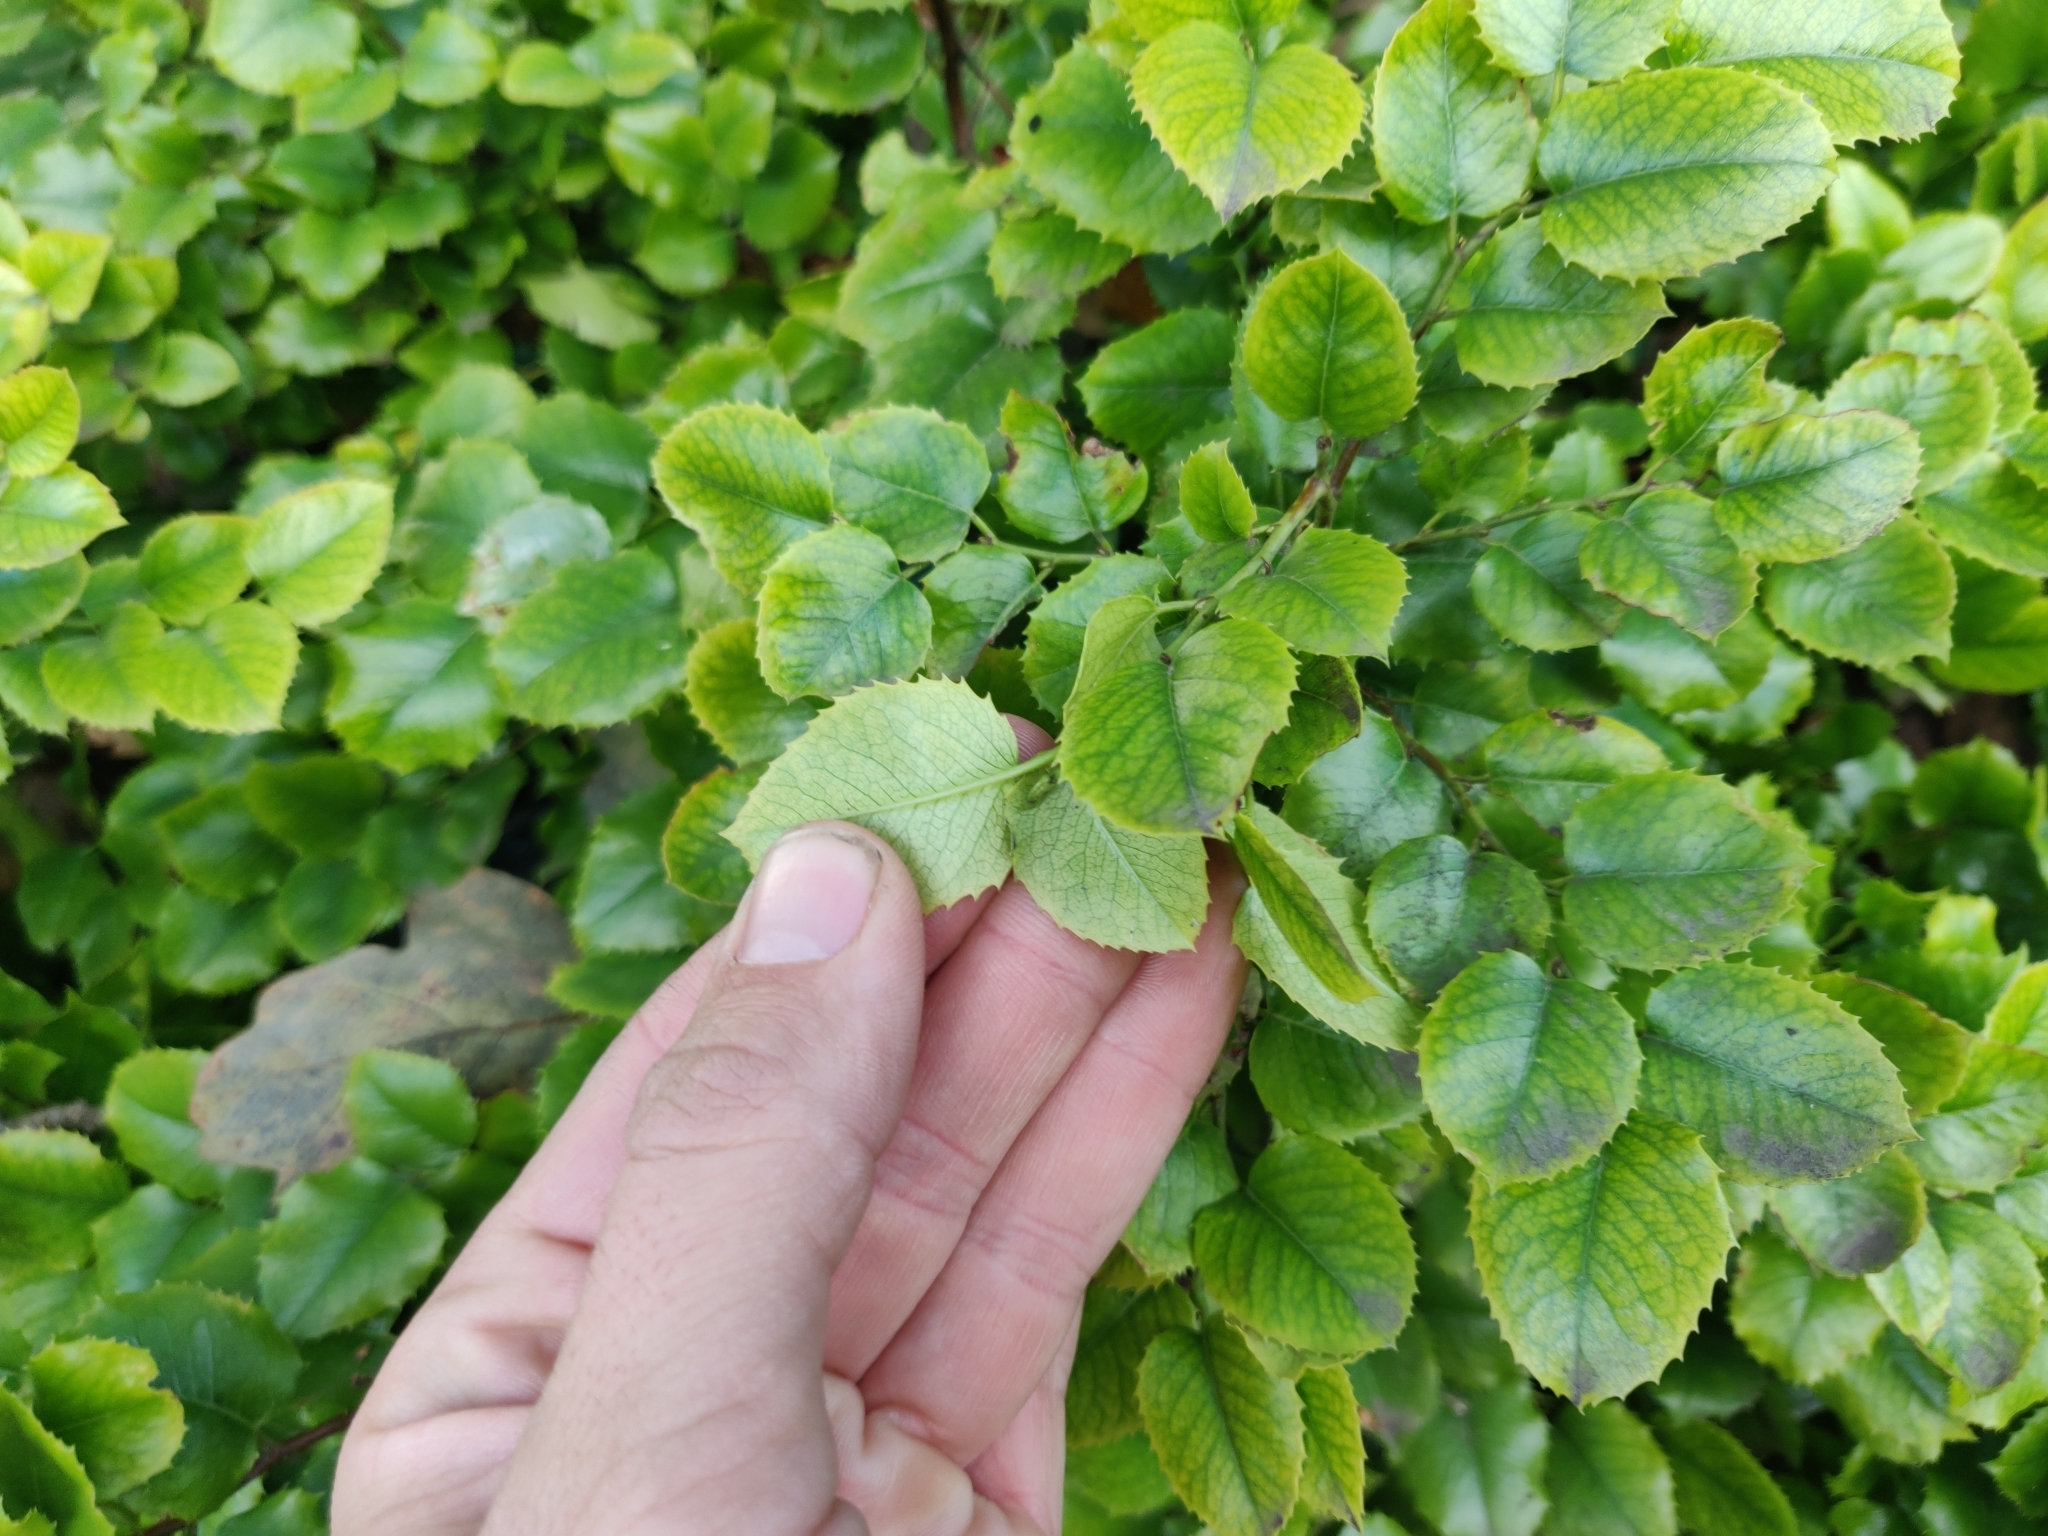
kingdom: Plantae
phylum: Tracheophyta
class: Magnoliopsida
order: Rosales
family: Rosaceae
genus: Prunus
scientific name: Prunus ilicifolia
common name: Hollyleaf cherry
